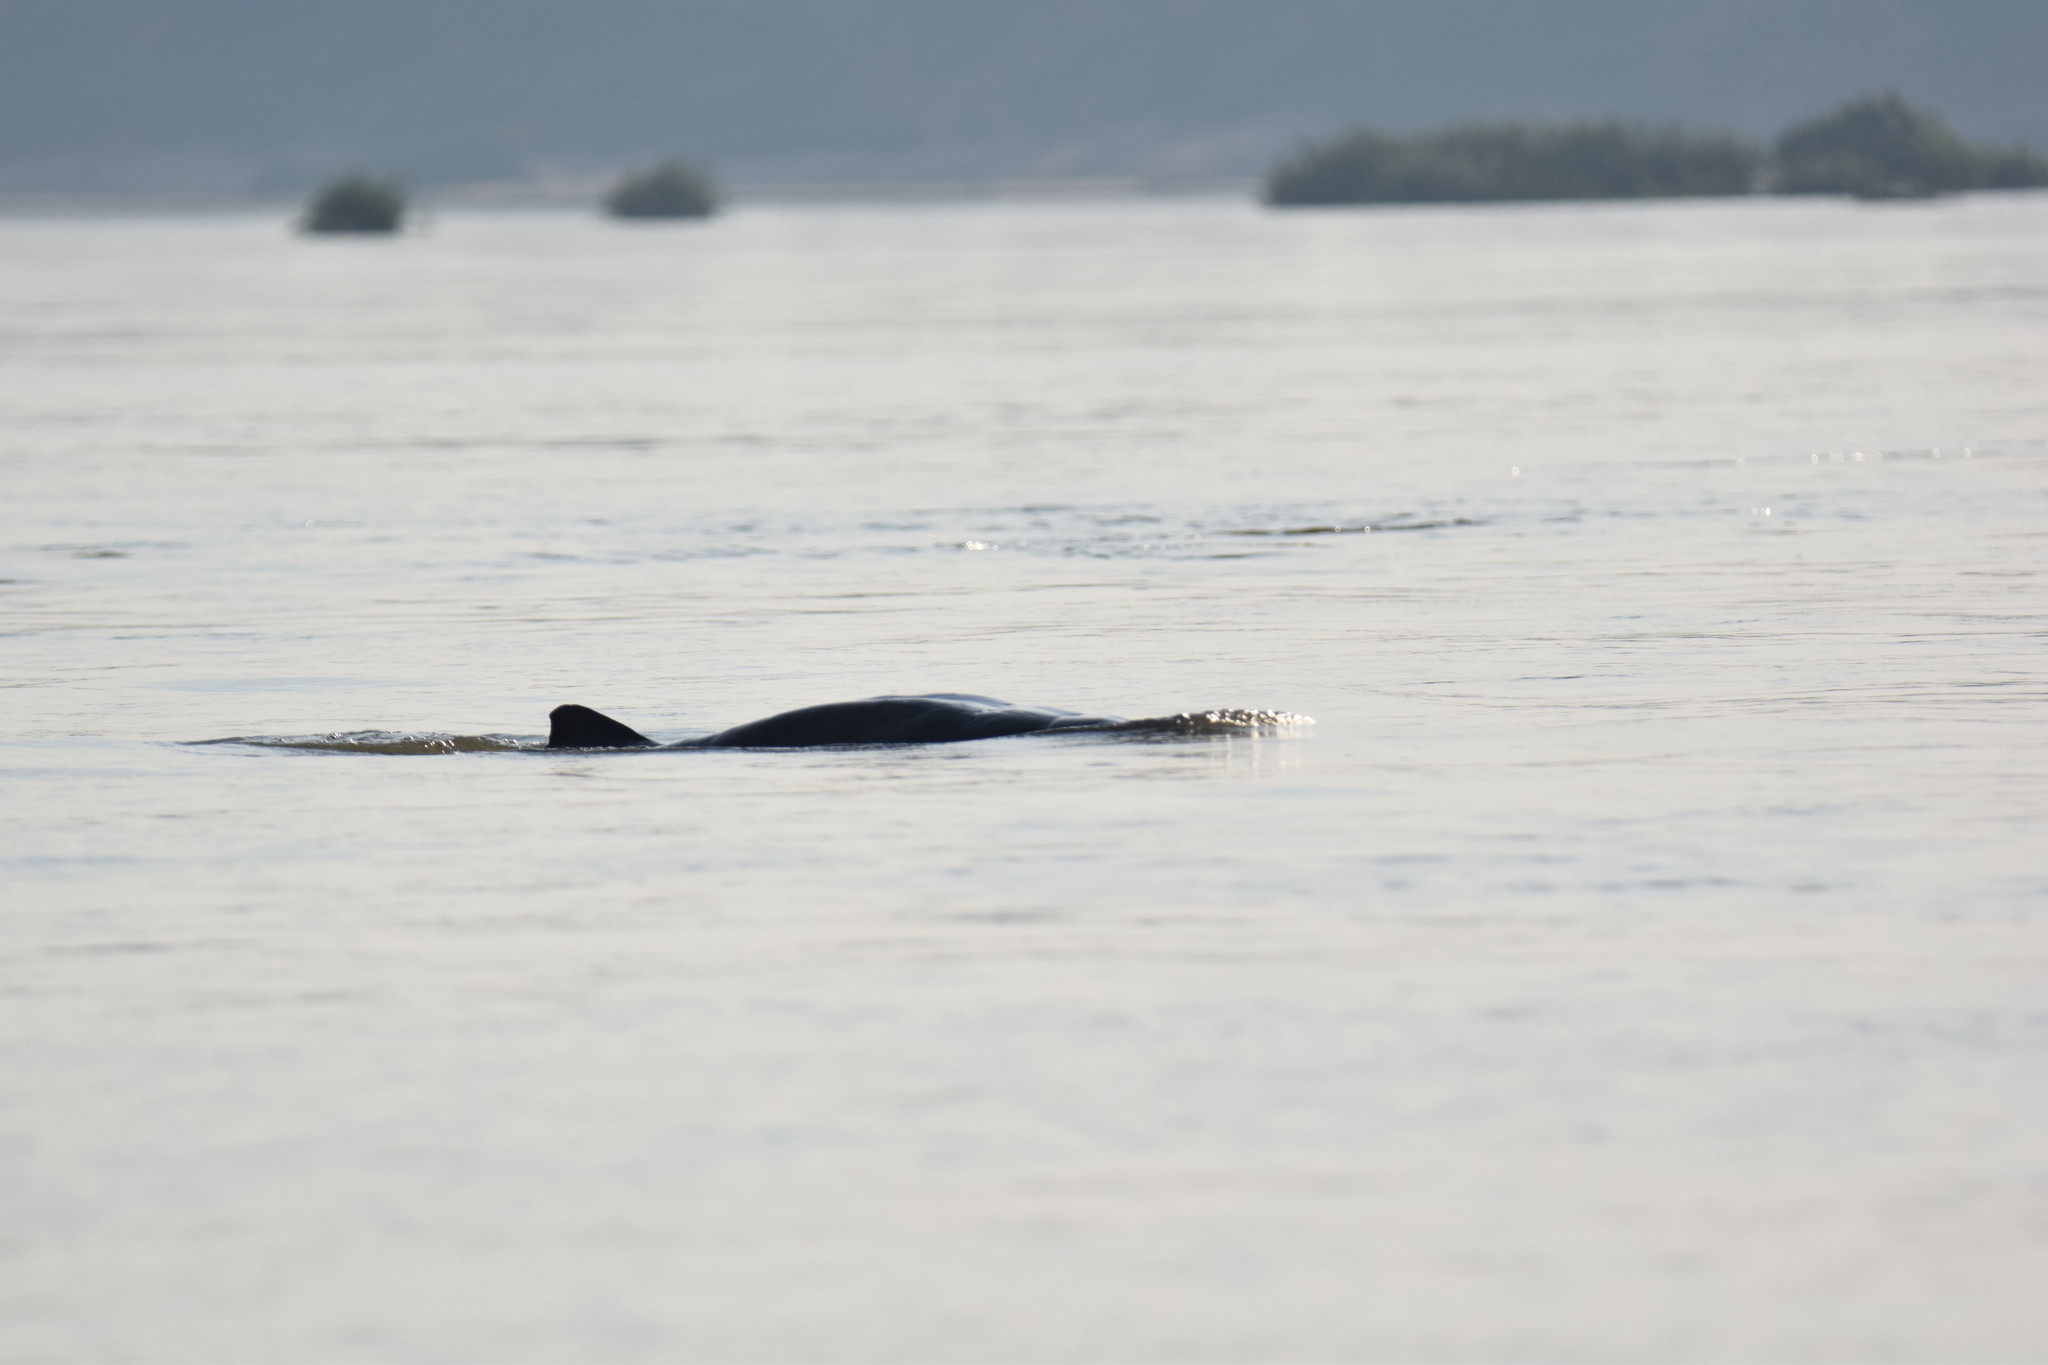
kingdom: Animalia
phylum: Chordata
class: Mammalia
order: Cetacea
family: Delphinidae
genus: Orcaella
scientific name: Orcaella brevirostris
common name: Irrawaddy dolphin
